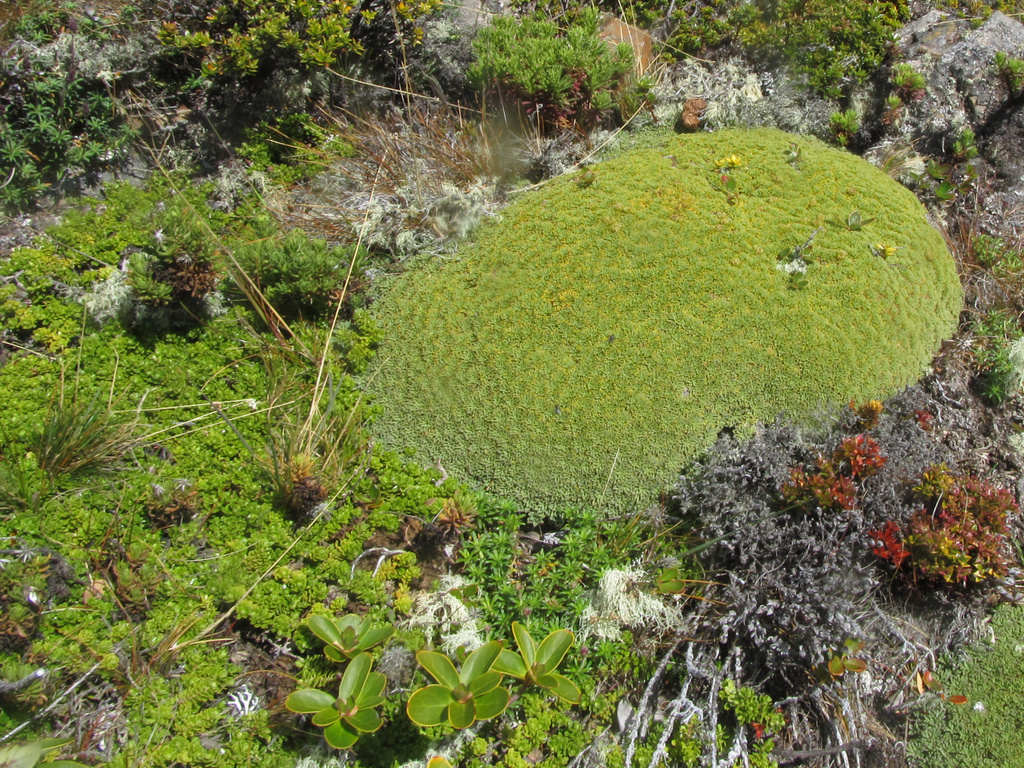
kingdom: Plantae
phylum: Tracheophyta
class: Magnoliopsida
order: Apiales
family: Apiaceae
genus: Bolax
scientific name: Bolax gummifera
